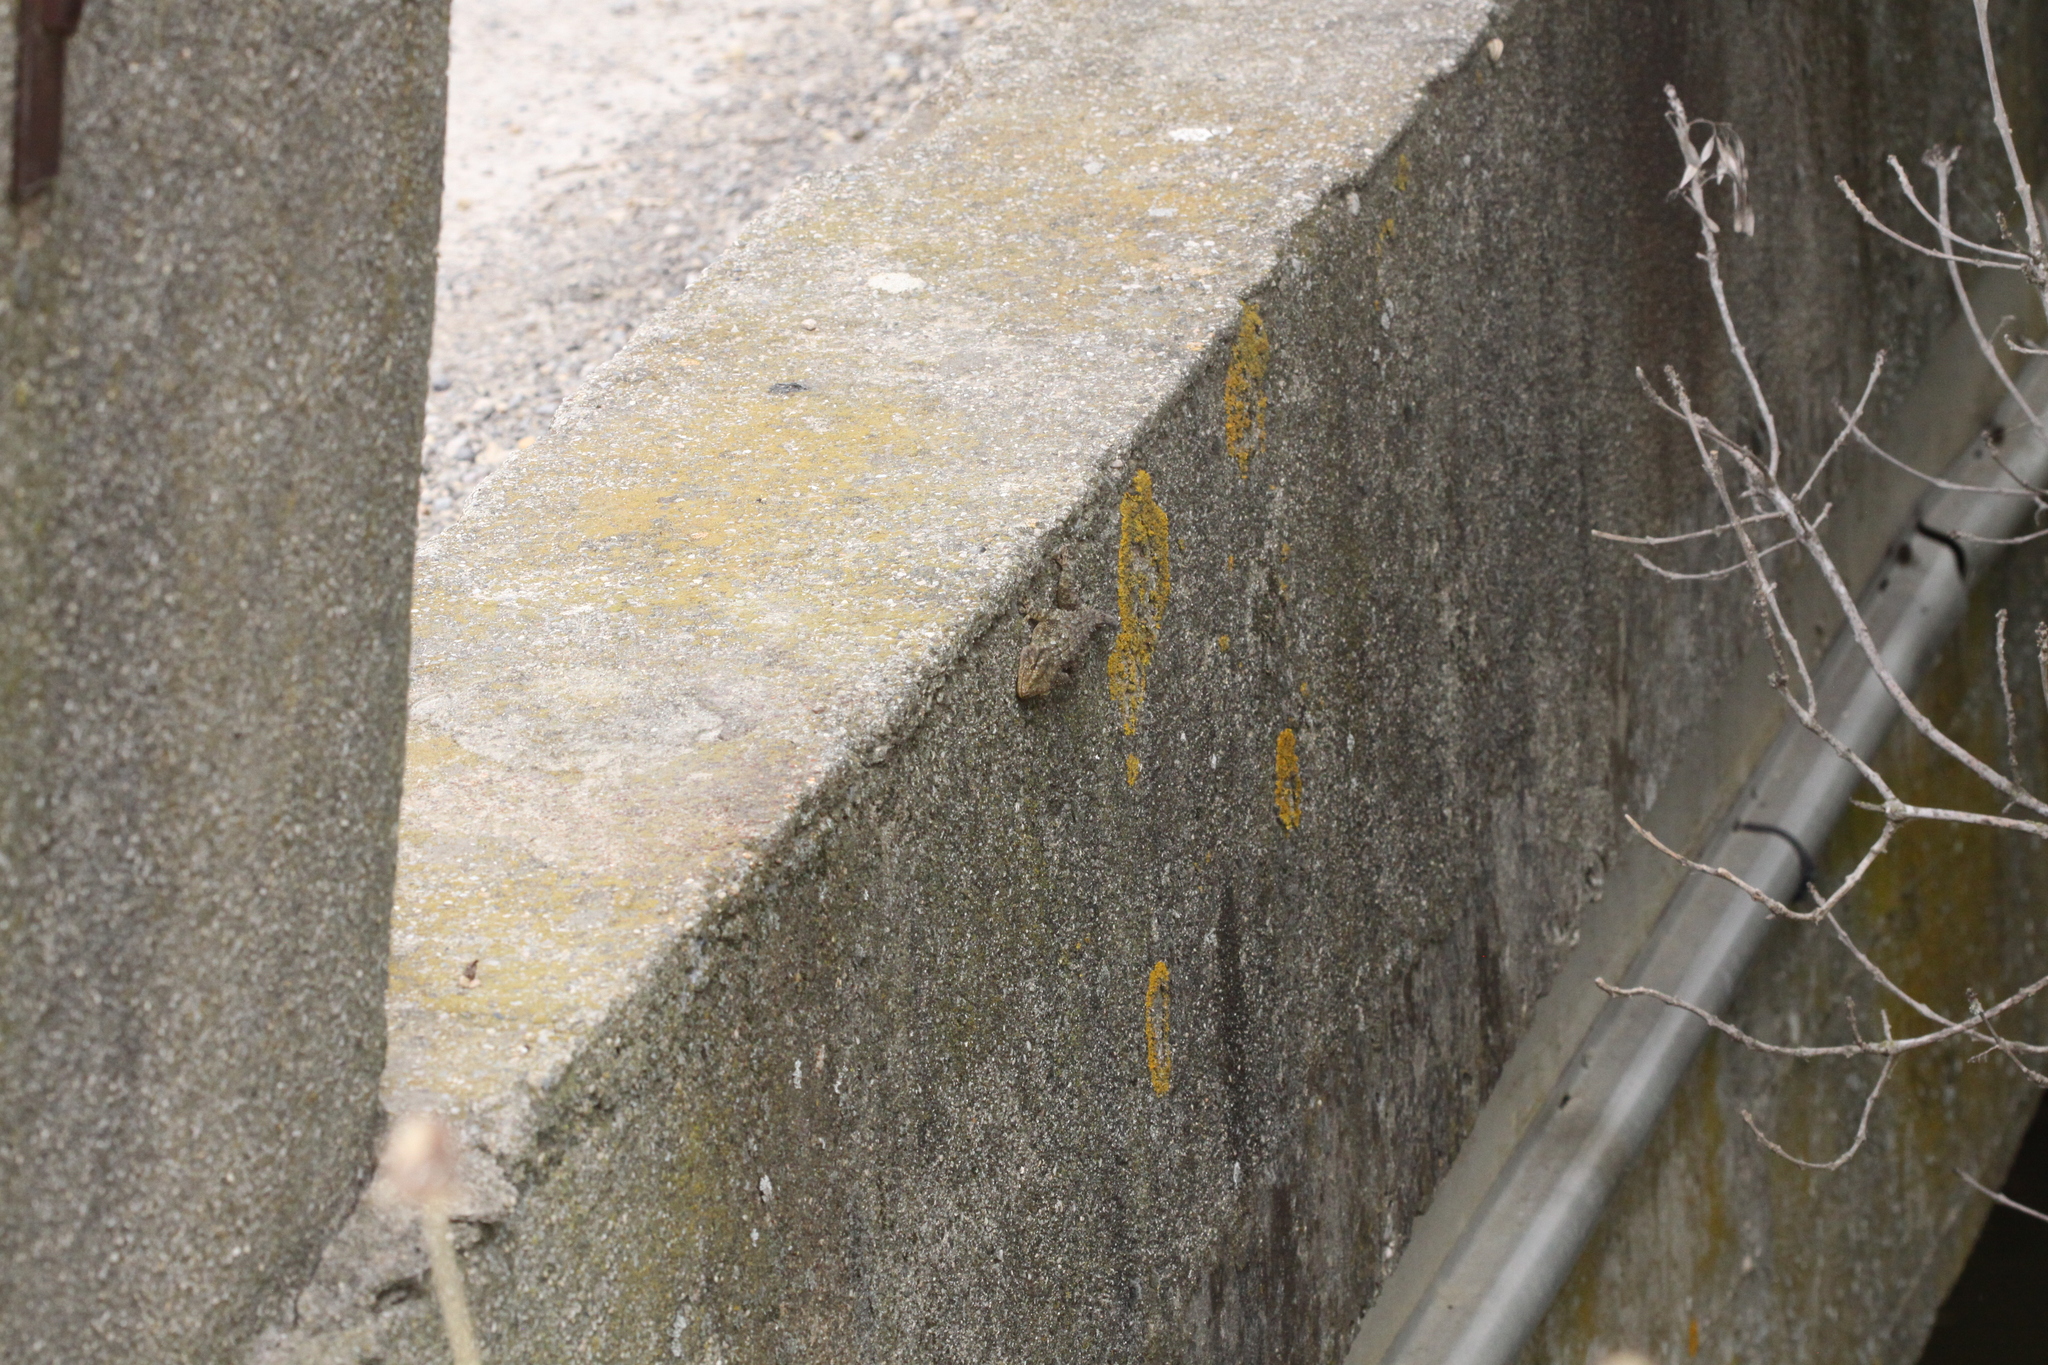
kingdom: Animalia
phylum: Chordata
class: Squamata
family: Phyllodactylidae
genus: Tarentola
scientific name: Tarentola mauritanica
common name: Moorish gecko
